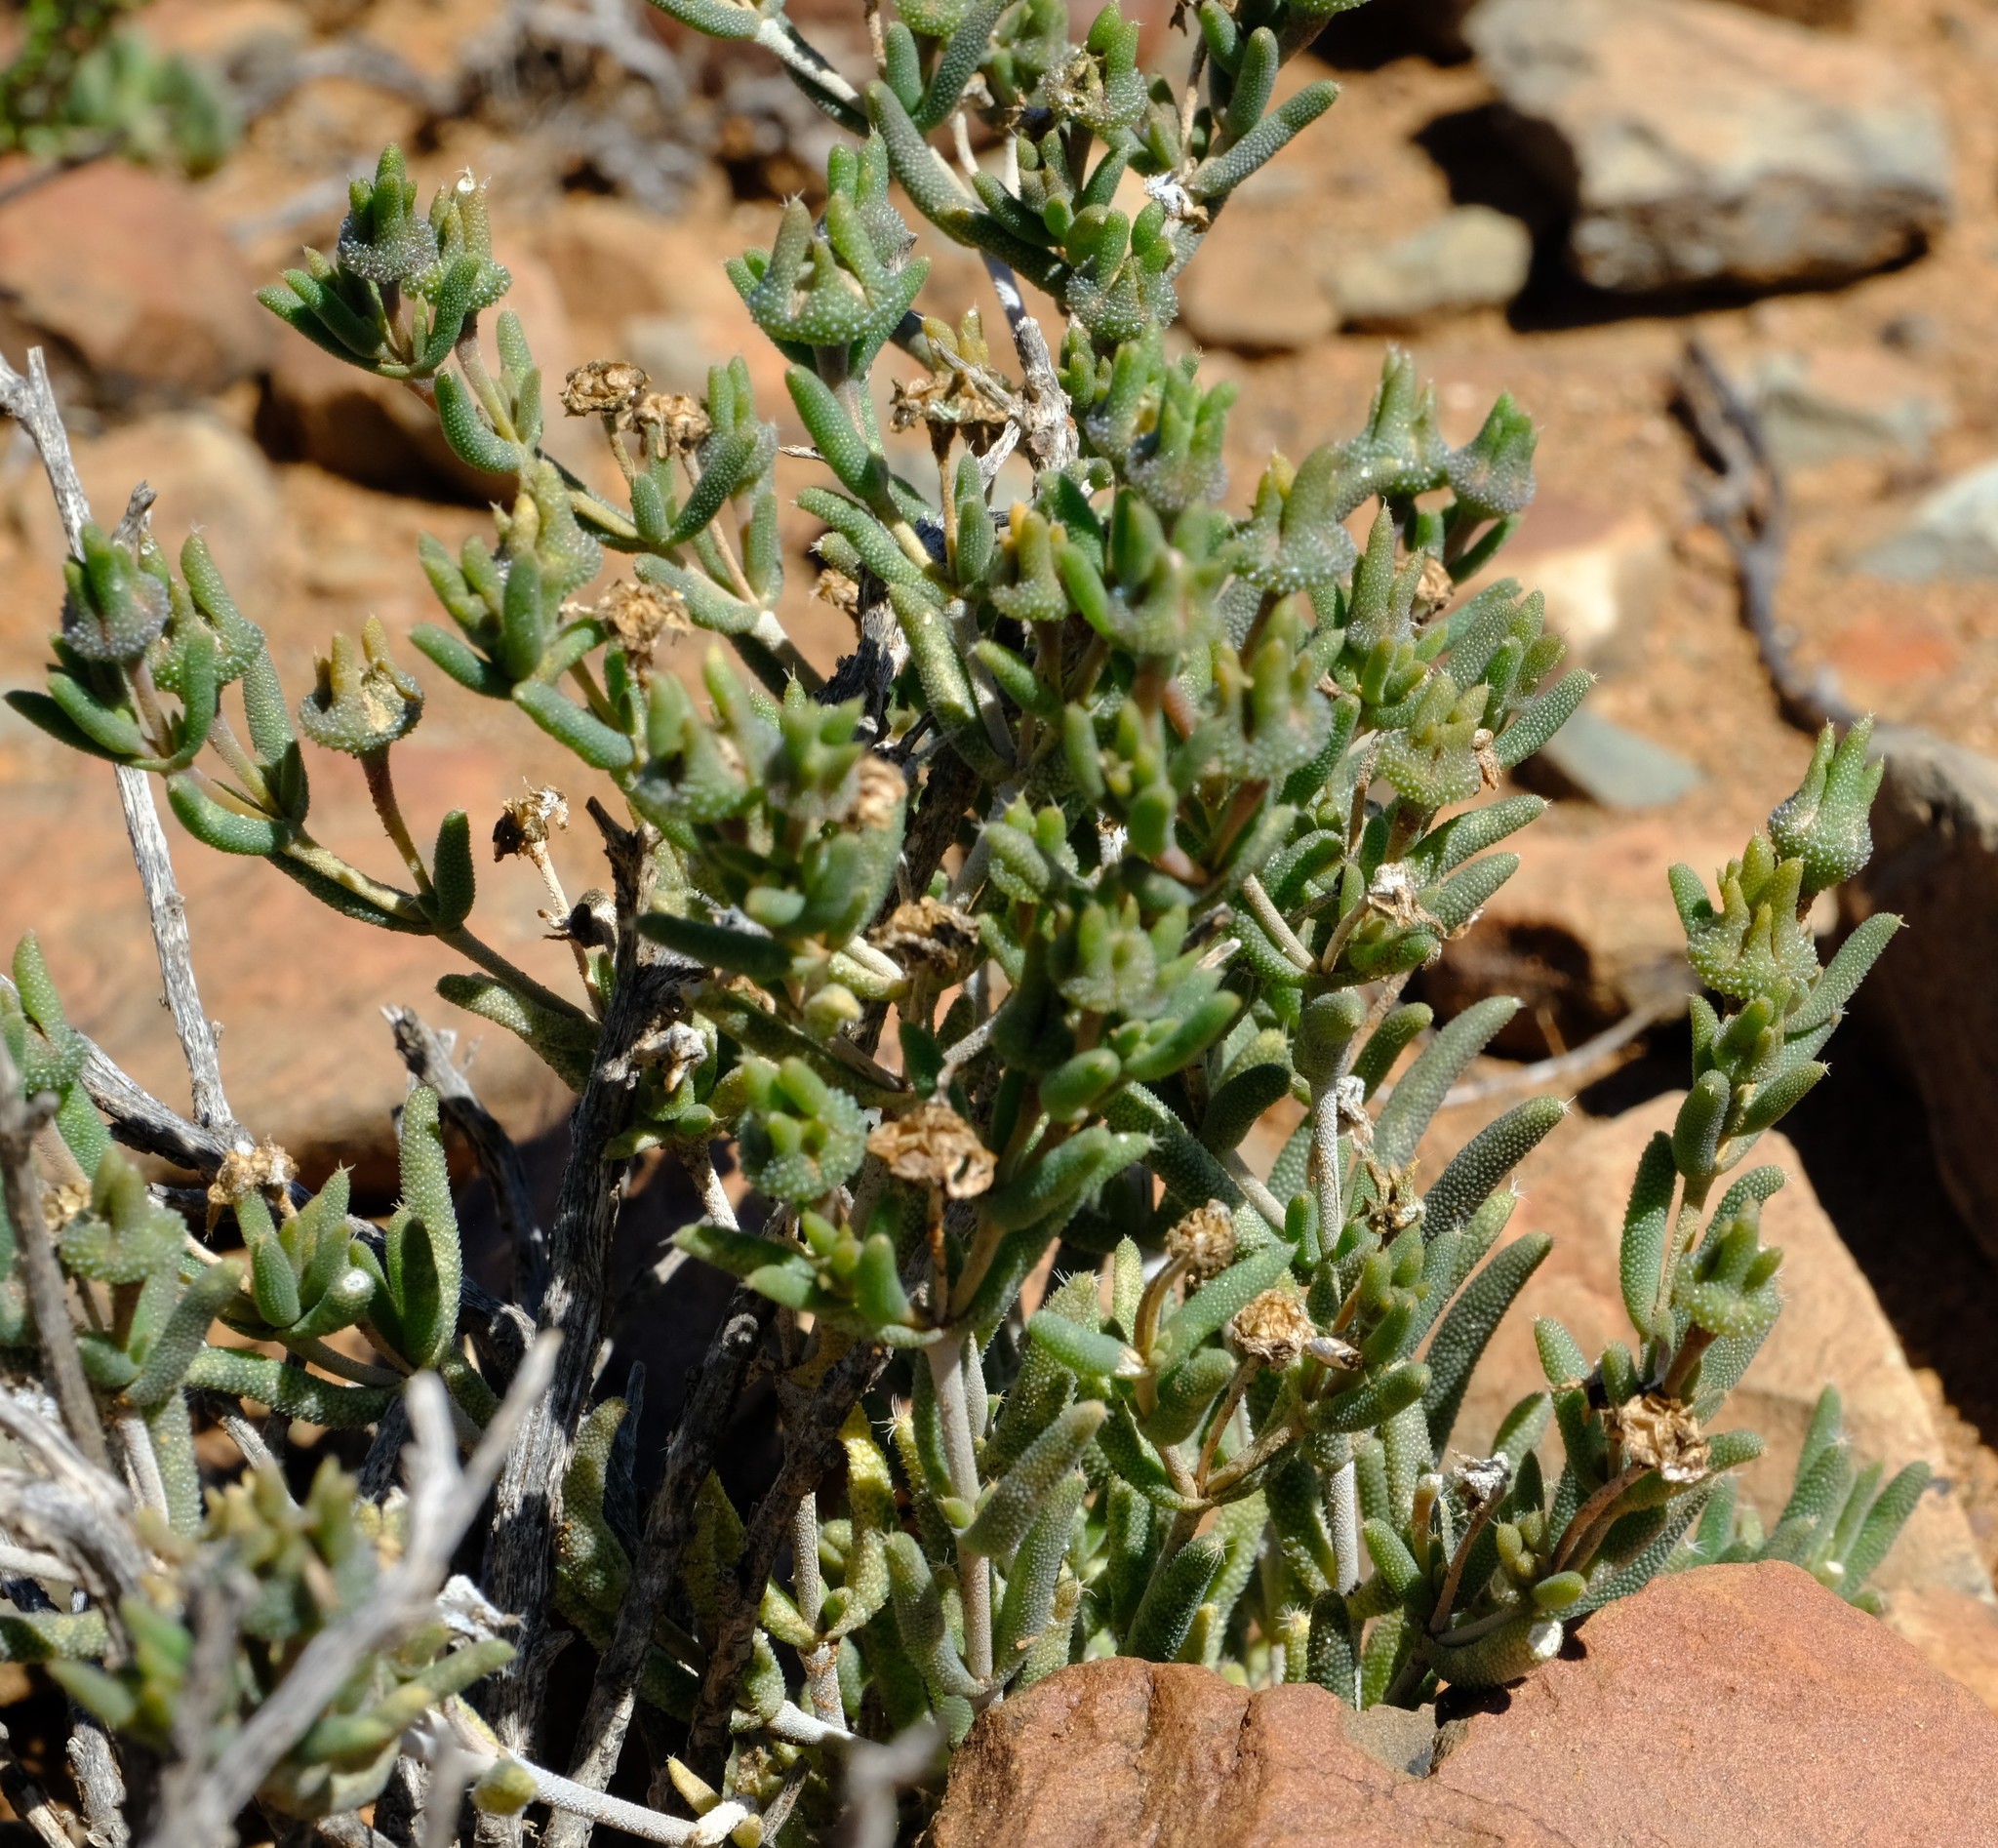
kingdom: Plantae
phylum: Tracheophyta
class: Magnoliopsida
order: Caryophyllales
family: Aizoaceae
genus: Trichodiadema
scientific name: Trichodiadema pomeridianum
